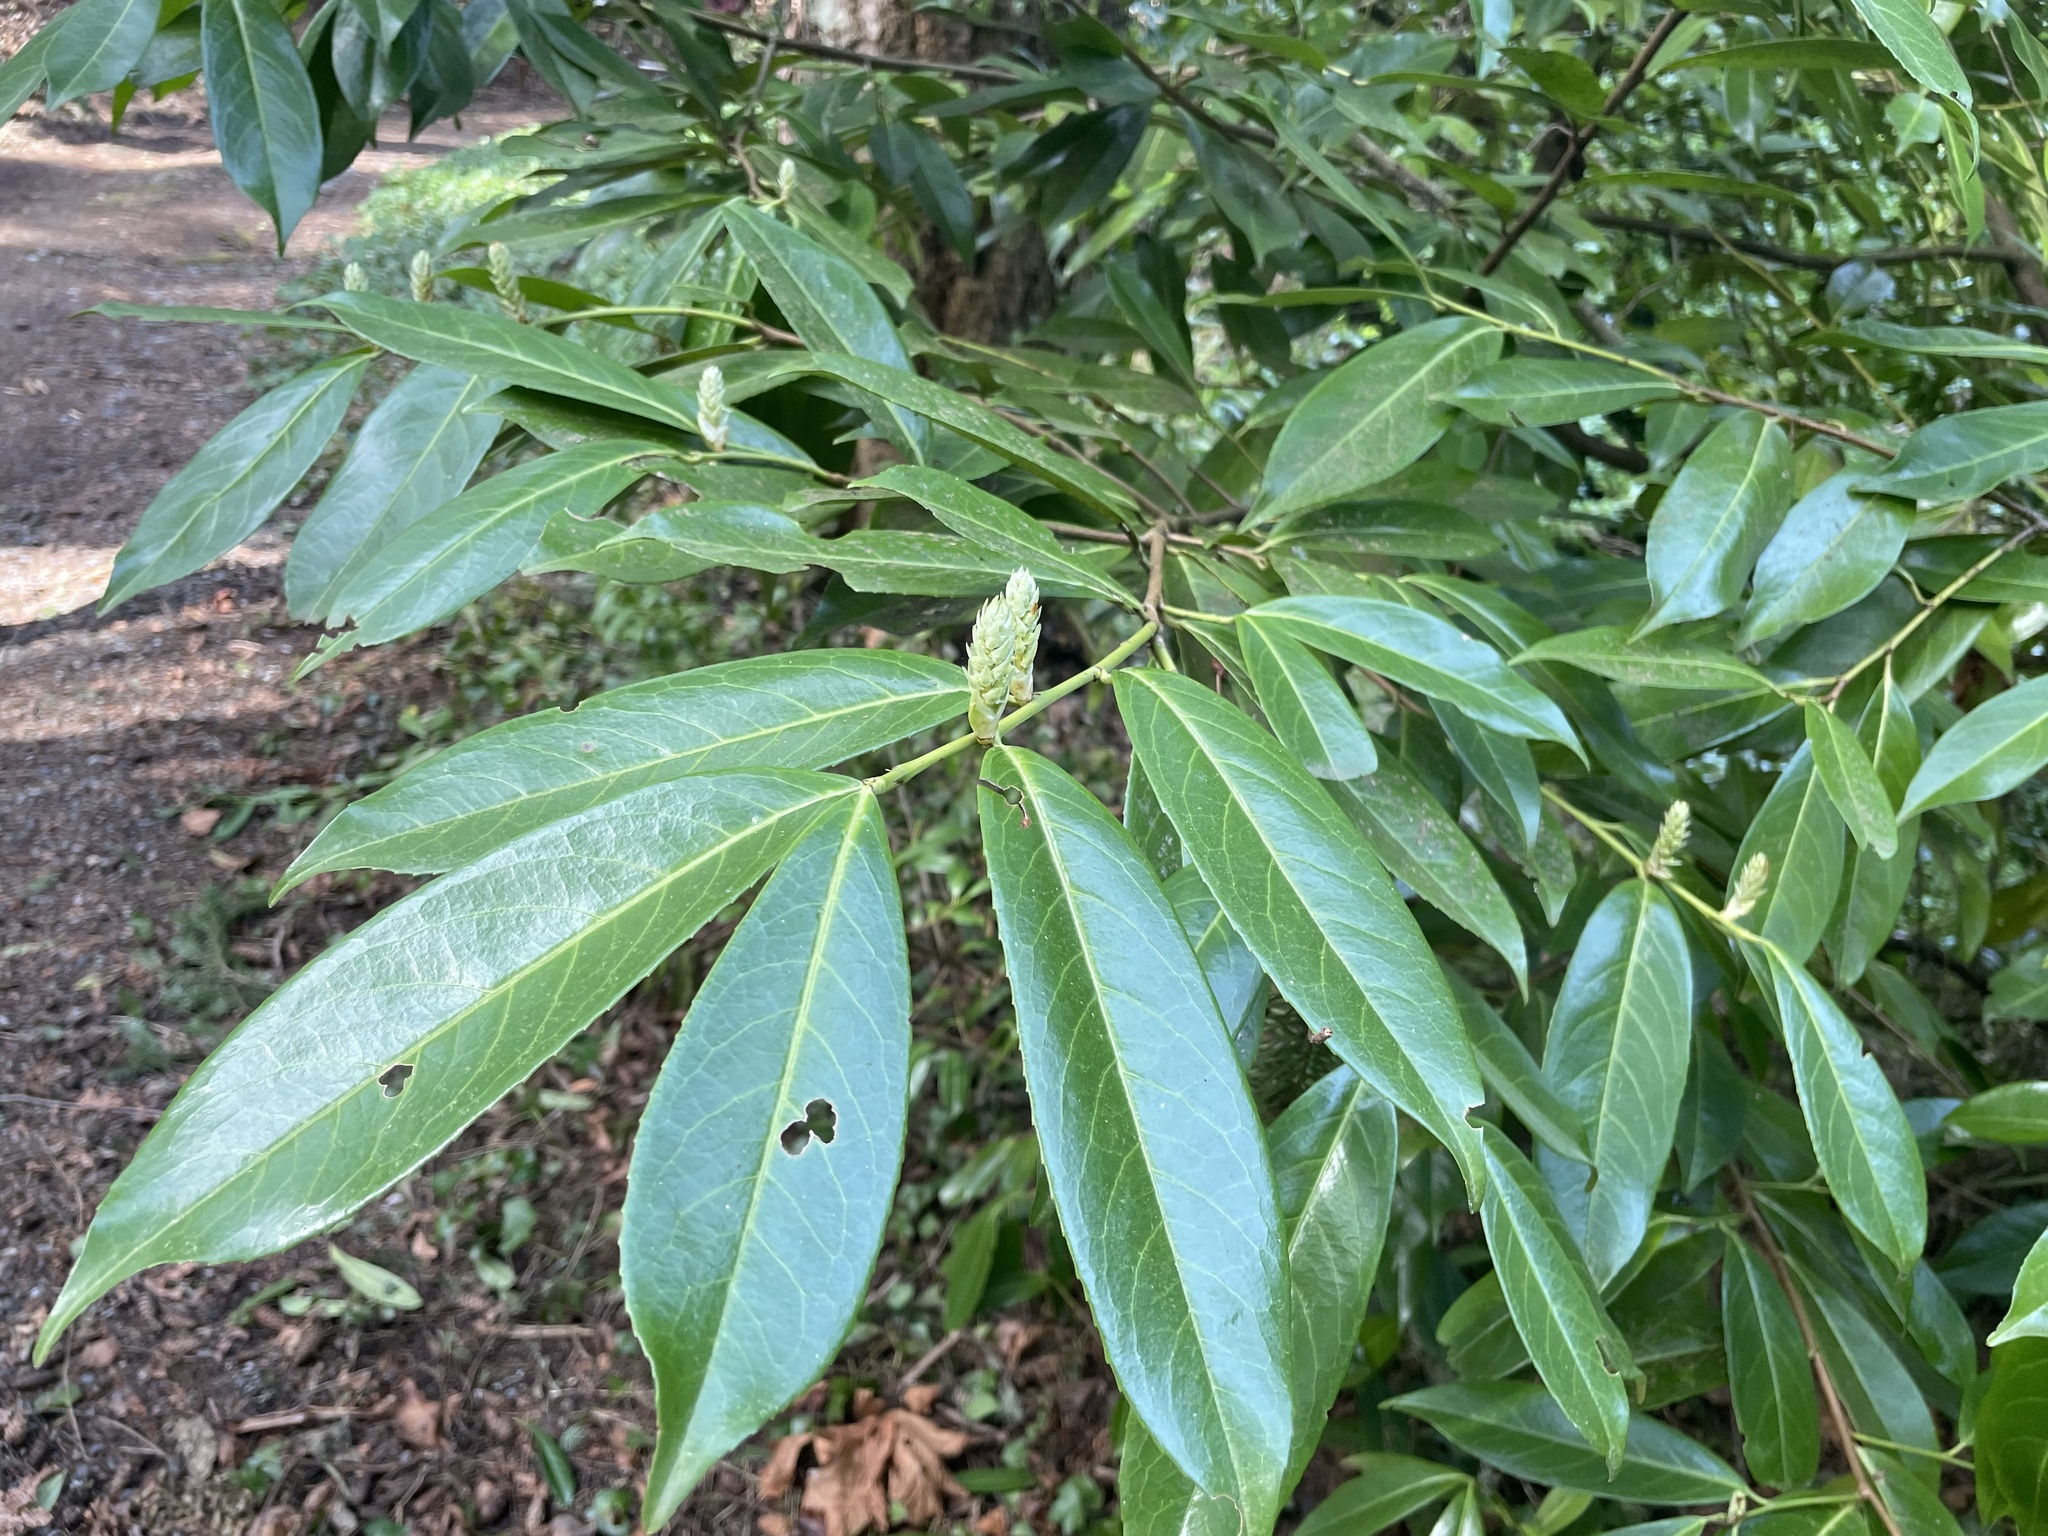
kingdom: Plantae
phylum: Tracheophyta
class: Magnoliopsida
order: Rosales
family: Rosaceae
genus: Prunus
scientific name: Prunus laurocerasus
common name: Cherry laurel
